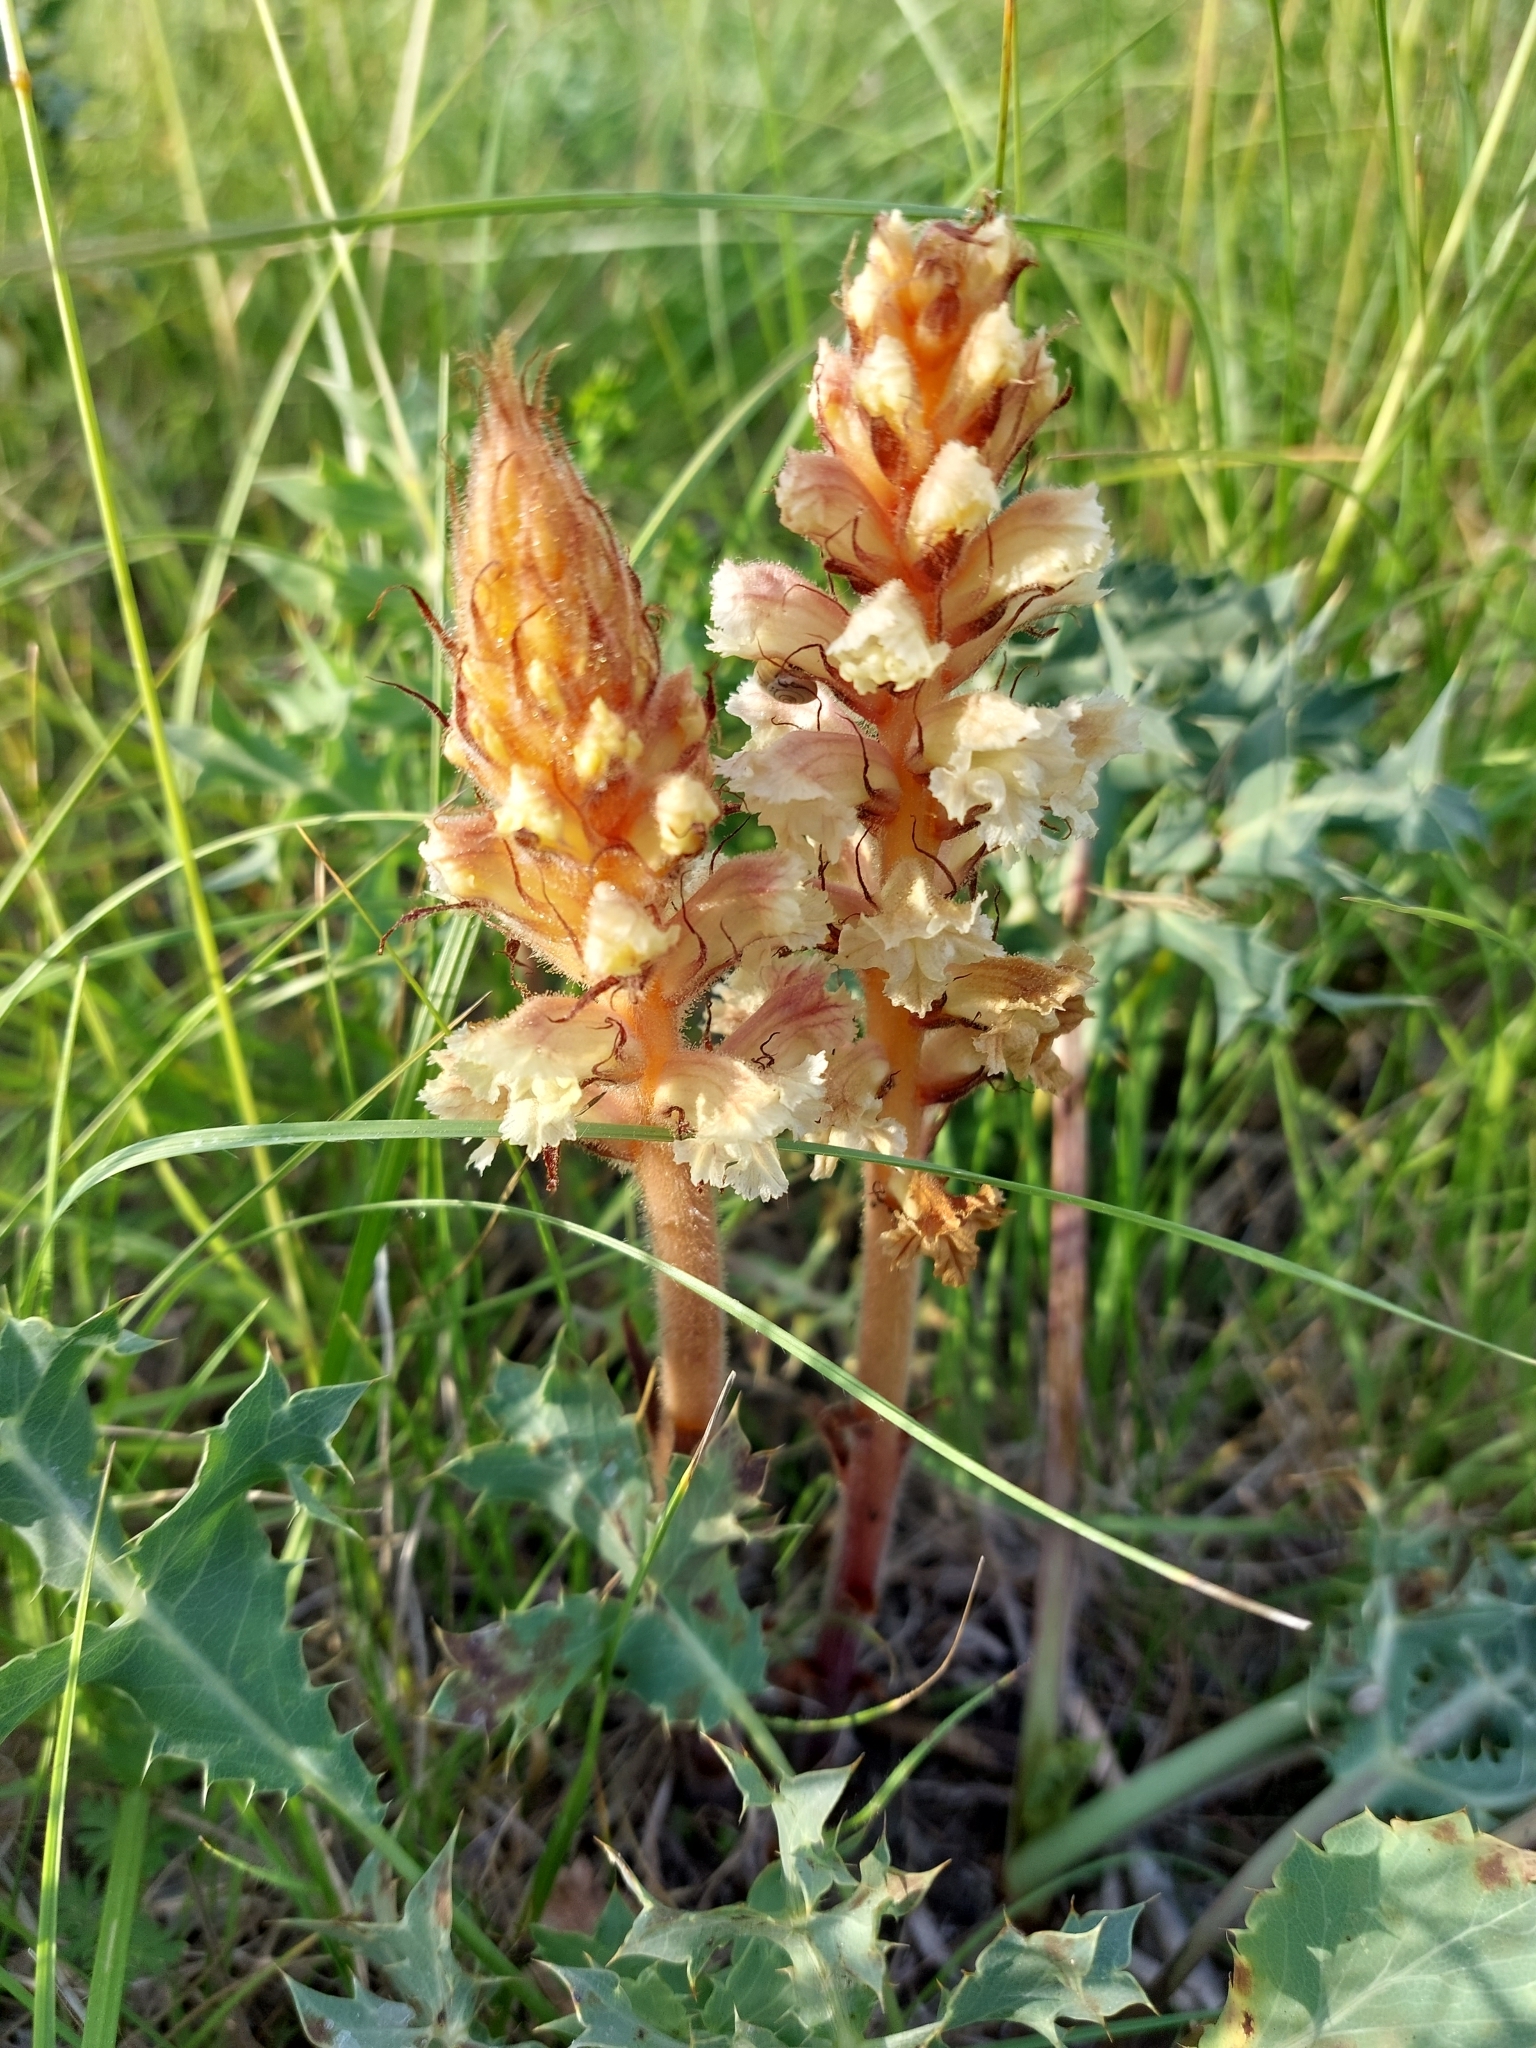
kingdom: Plantae
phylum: Tracheophyta
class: Magnoliopsida
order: Lamiales
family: Orobanchaceae
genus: Orobanche
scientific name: Orobanche amethystea
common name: Amethyst broomrape
